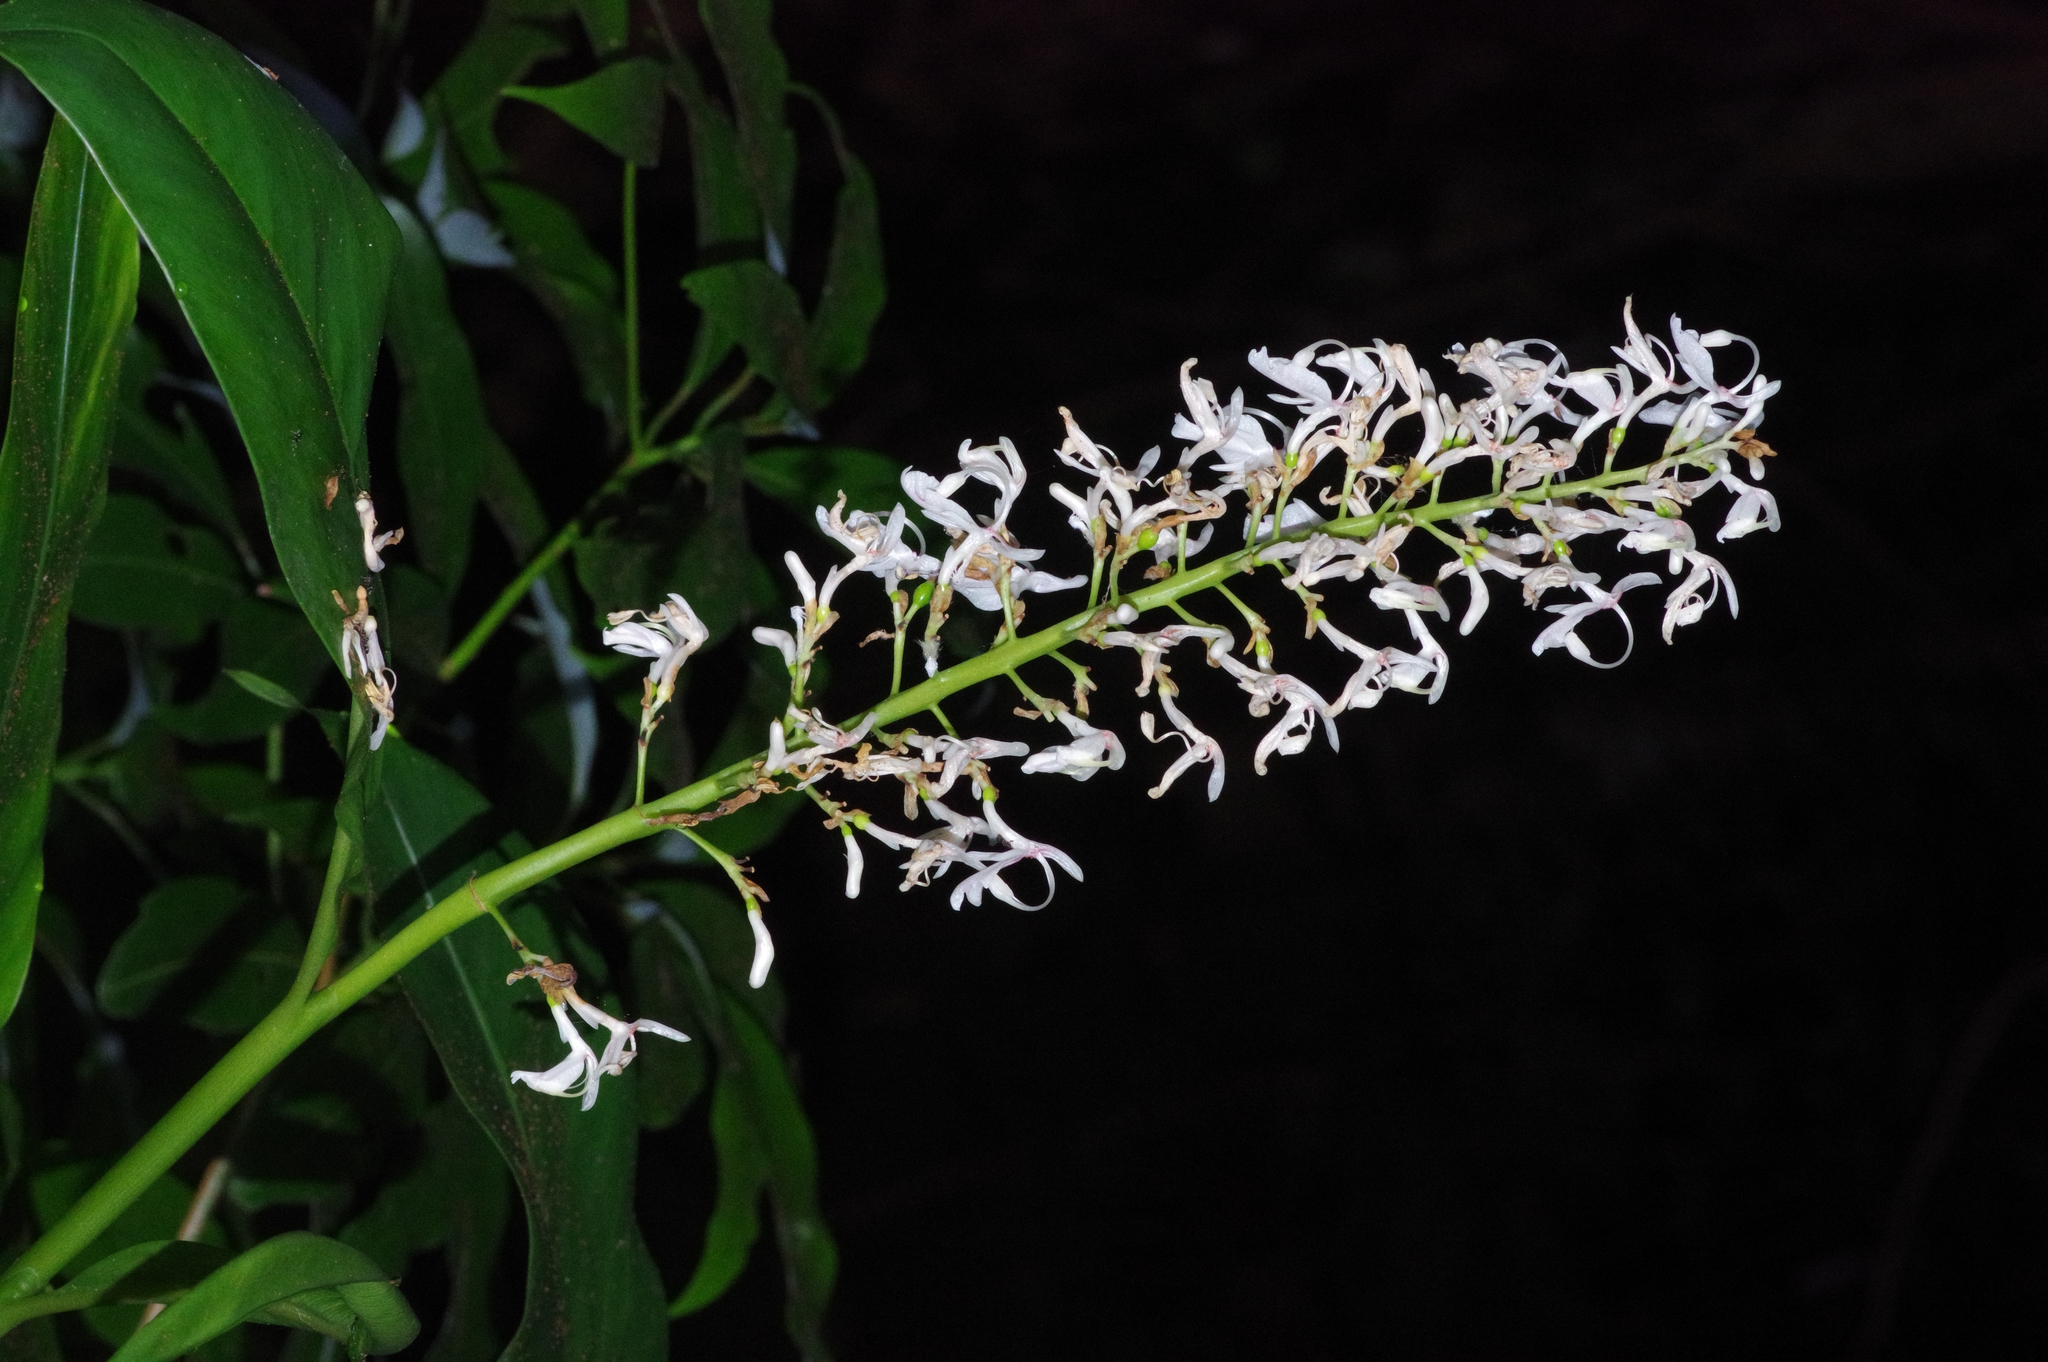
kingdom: Plantae
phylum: Tracheophyta
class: Liliopsida
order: Zingiberales
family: Zingiberaceae
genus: Alpinia
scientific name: Alpinia intermedia
